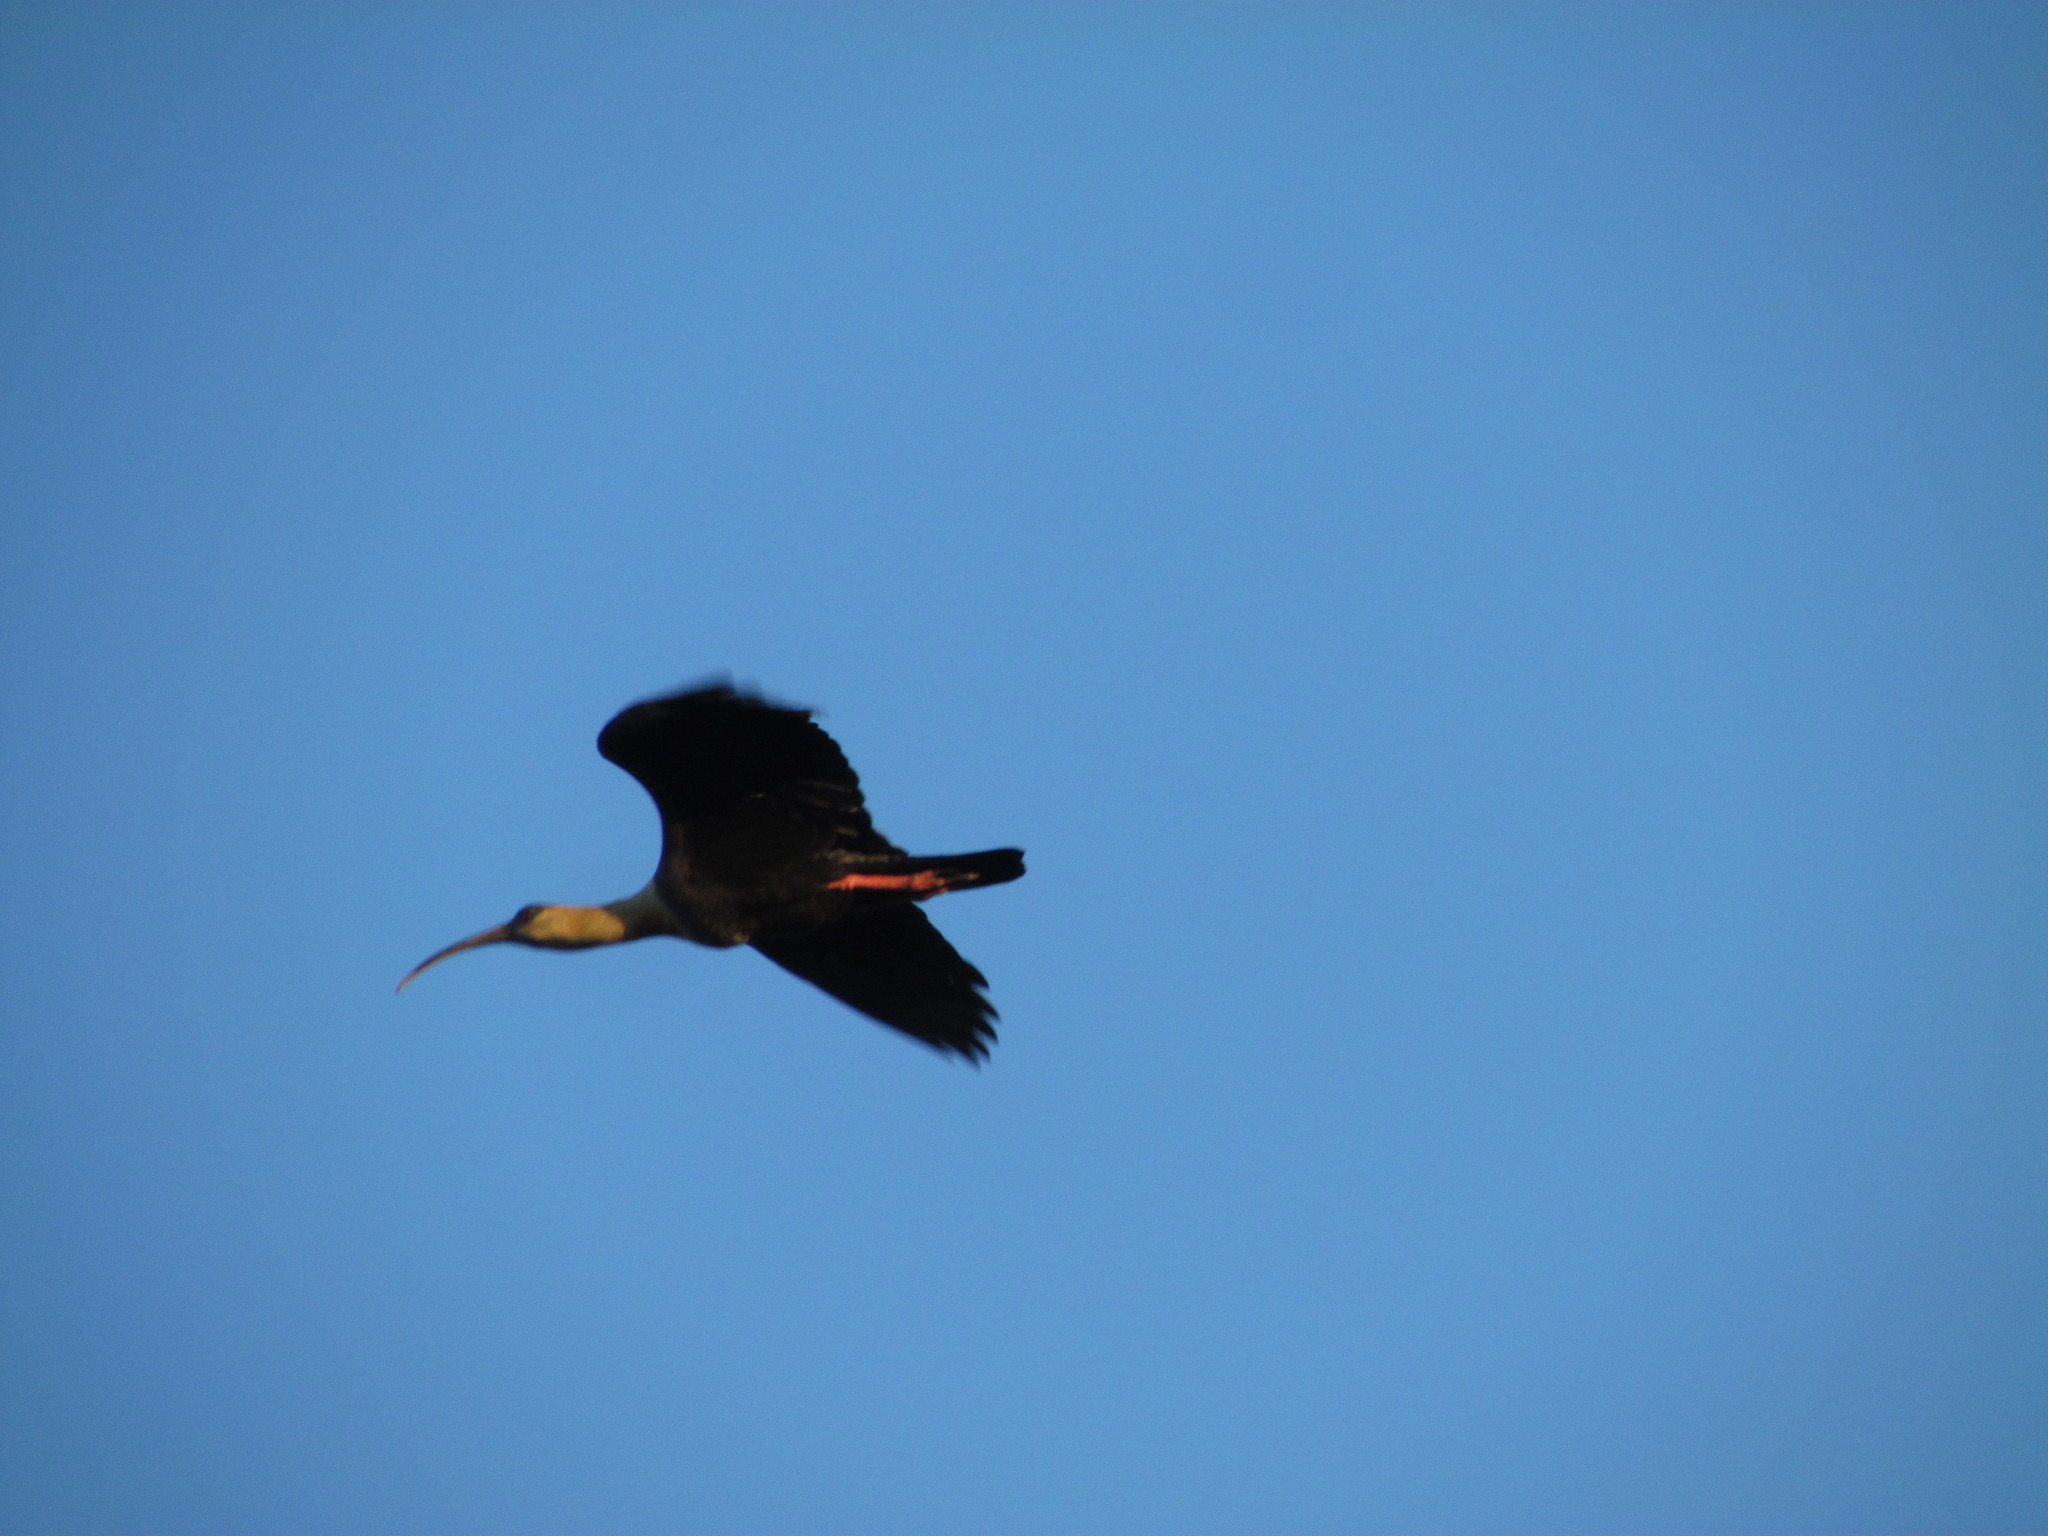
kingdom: Animalia
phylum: Chordata
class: Aves
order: Pelecaniformes
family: Threskiornithidae
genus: Theristicus
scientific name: Theristicus caudatus
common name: Buff-necked ibis
